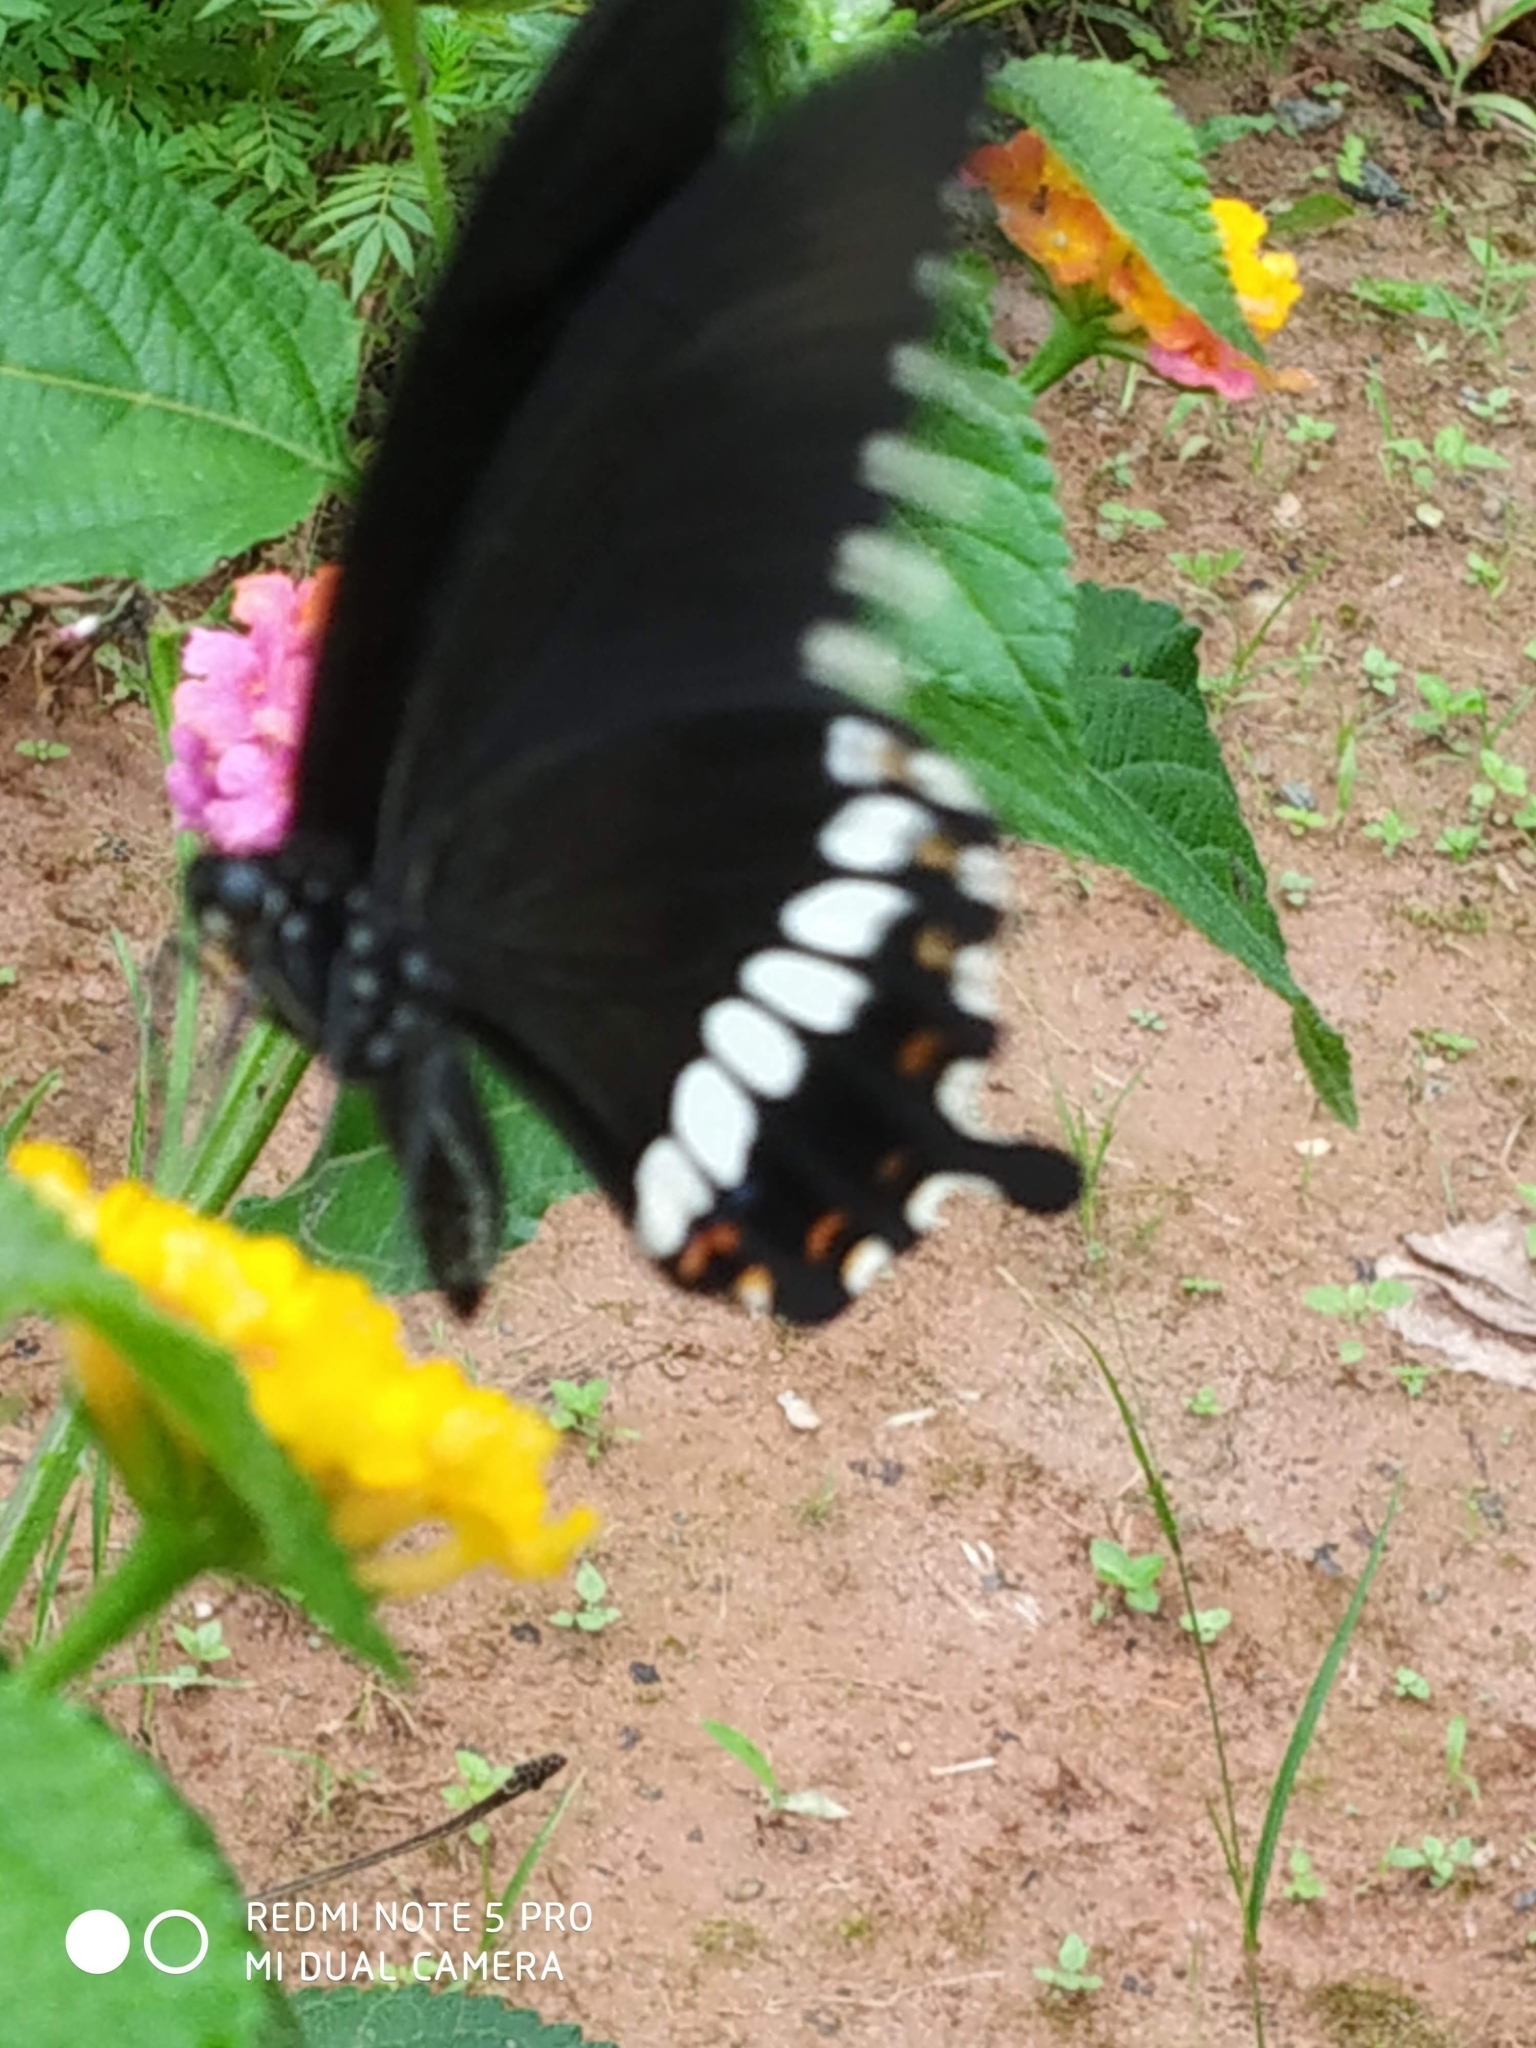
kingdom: Animalia
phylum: Arthropoda
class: Insecta
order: Lepidoptera
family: Papilionidae
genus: Papilio
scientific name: Papilio polytes
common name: Common mormon
